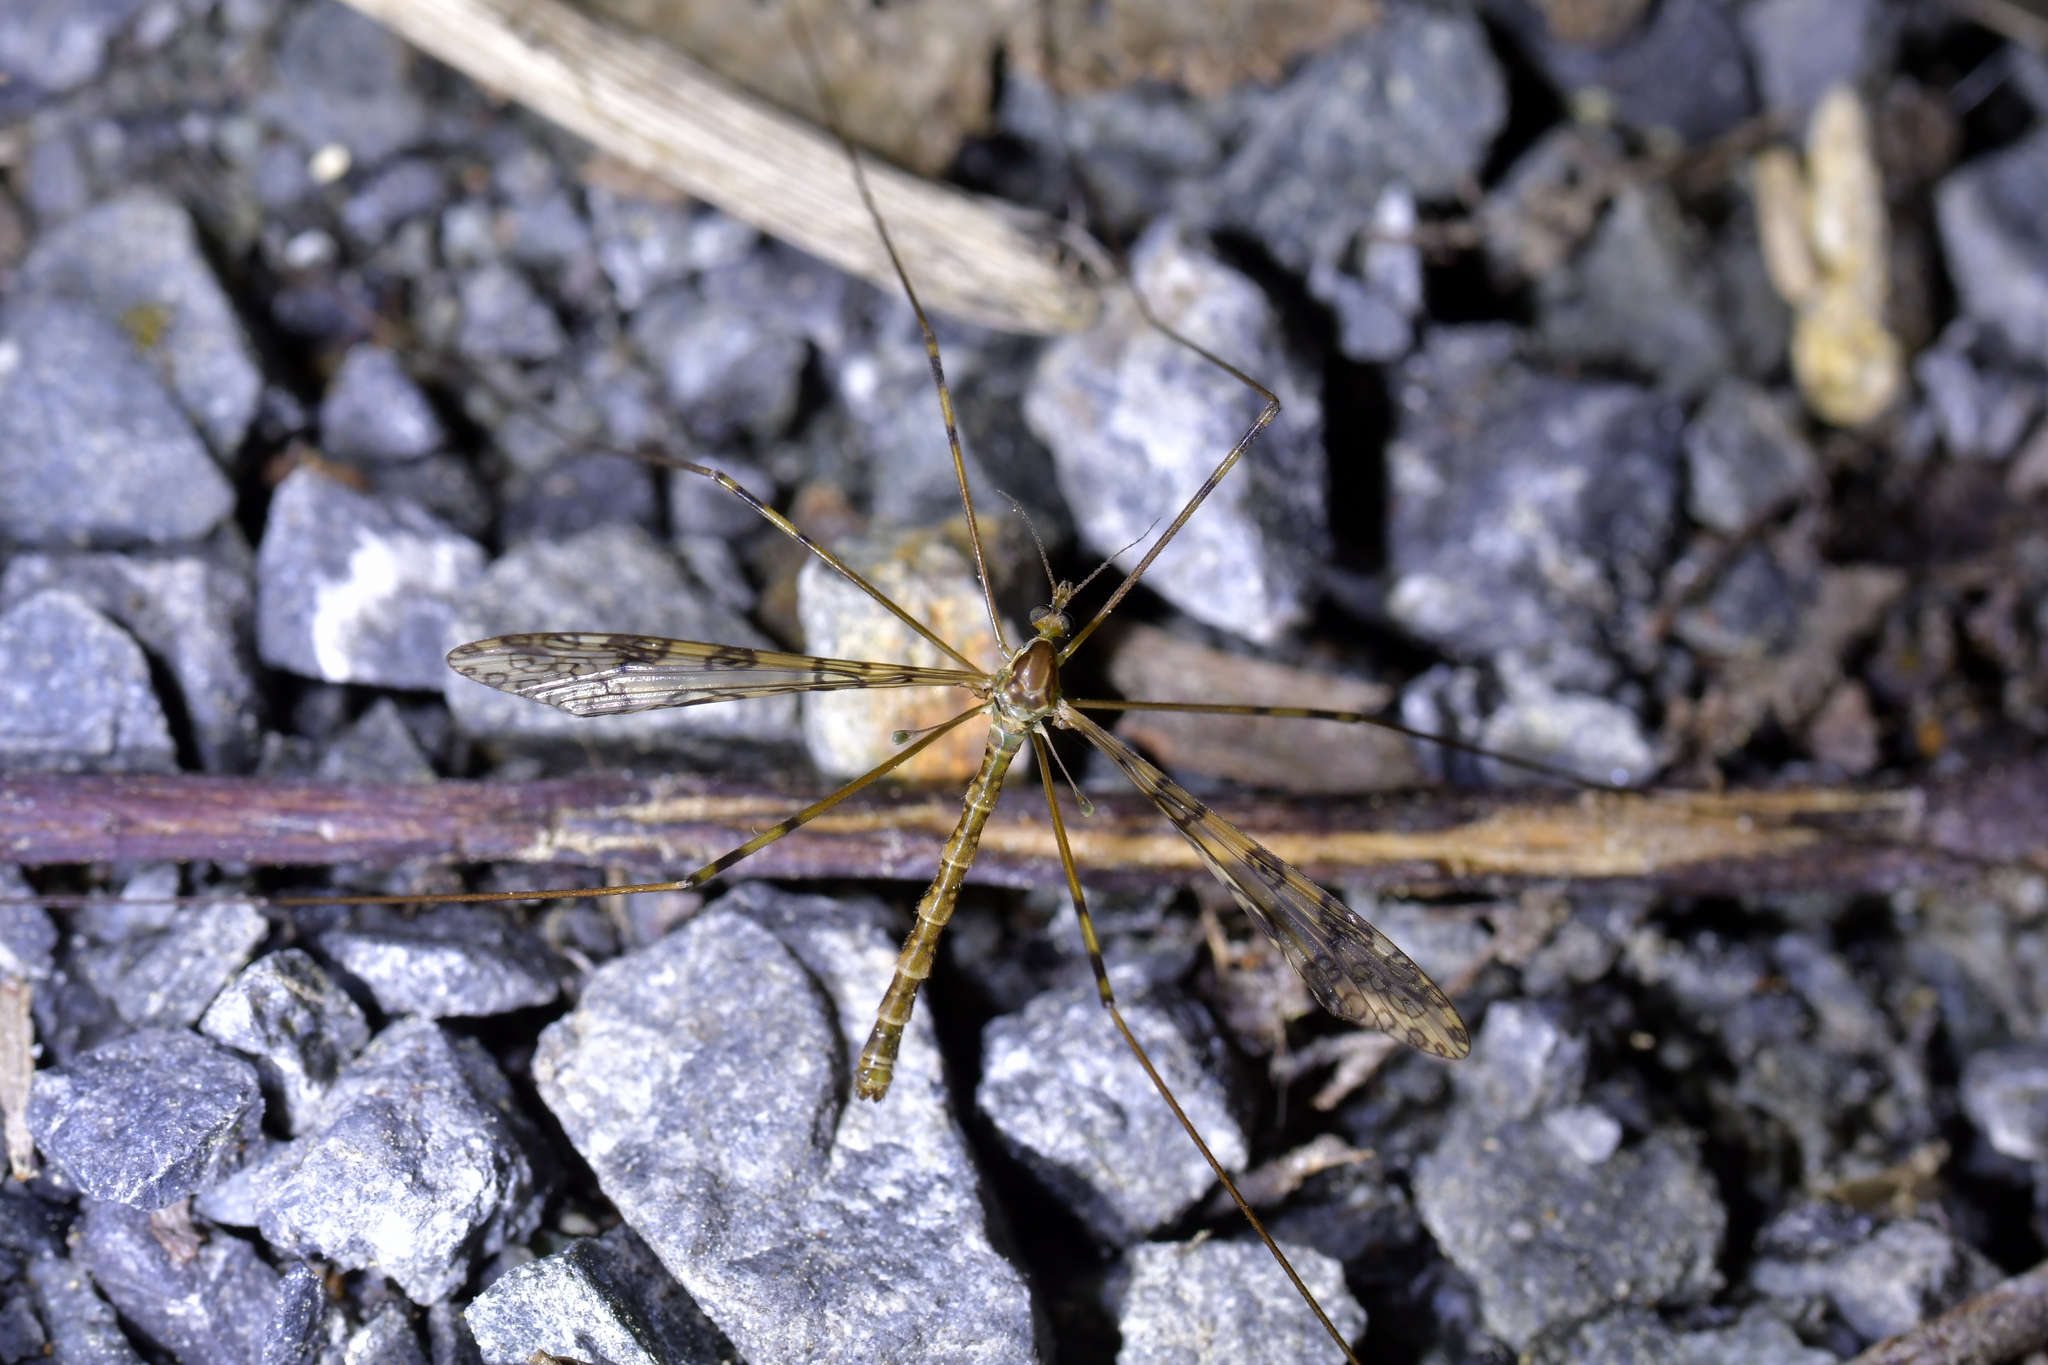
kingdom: Animalia
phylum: Arthropoda
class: Insecta
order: Diptera
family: Limoniidae
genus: Austrolimnophila
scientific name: Austrolimnophila argus
